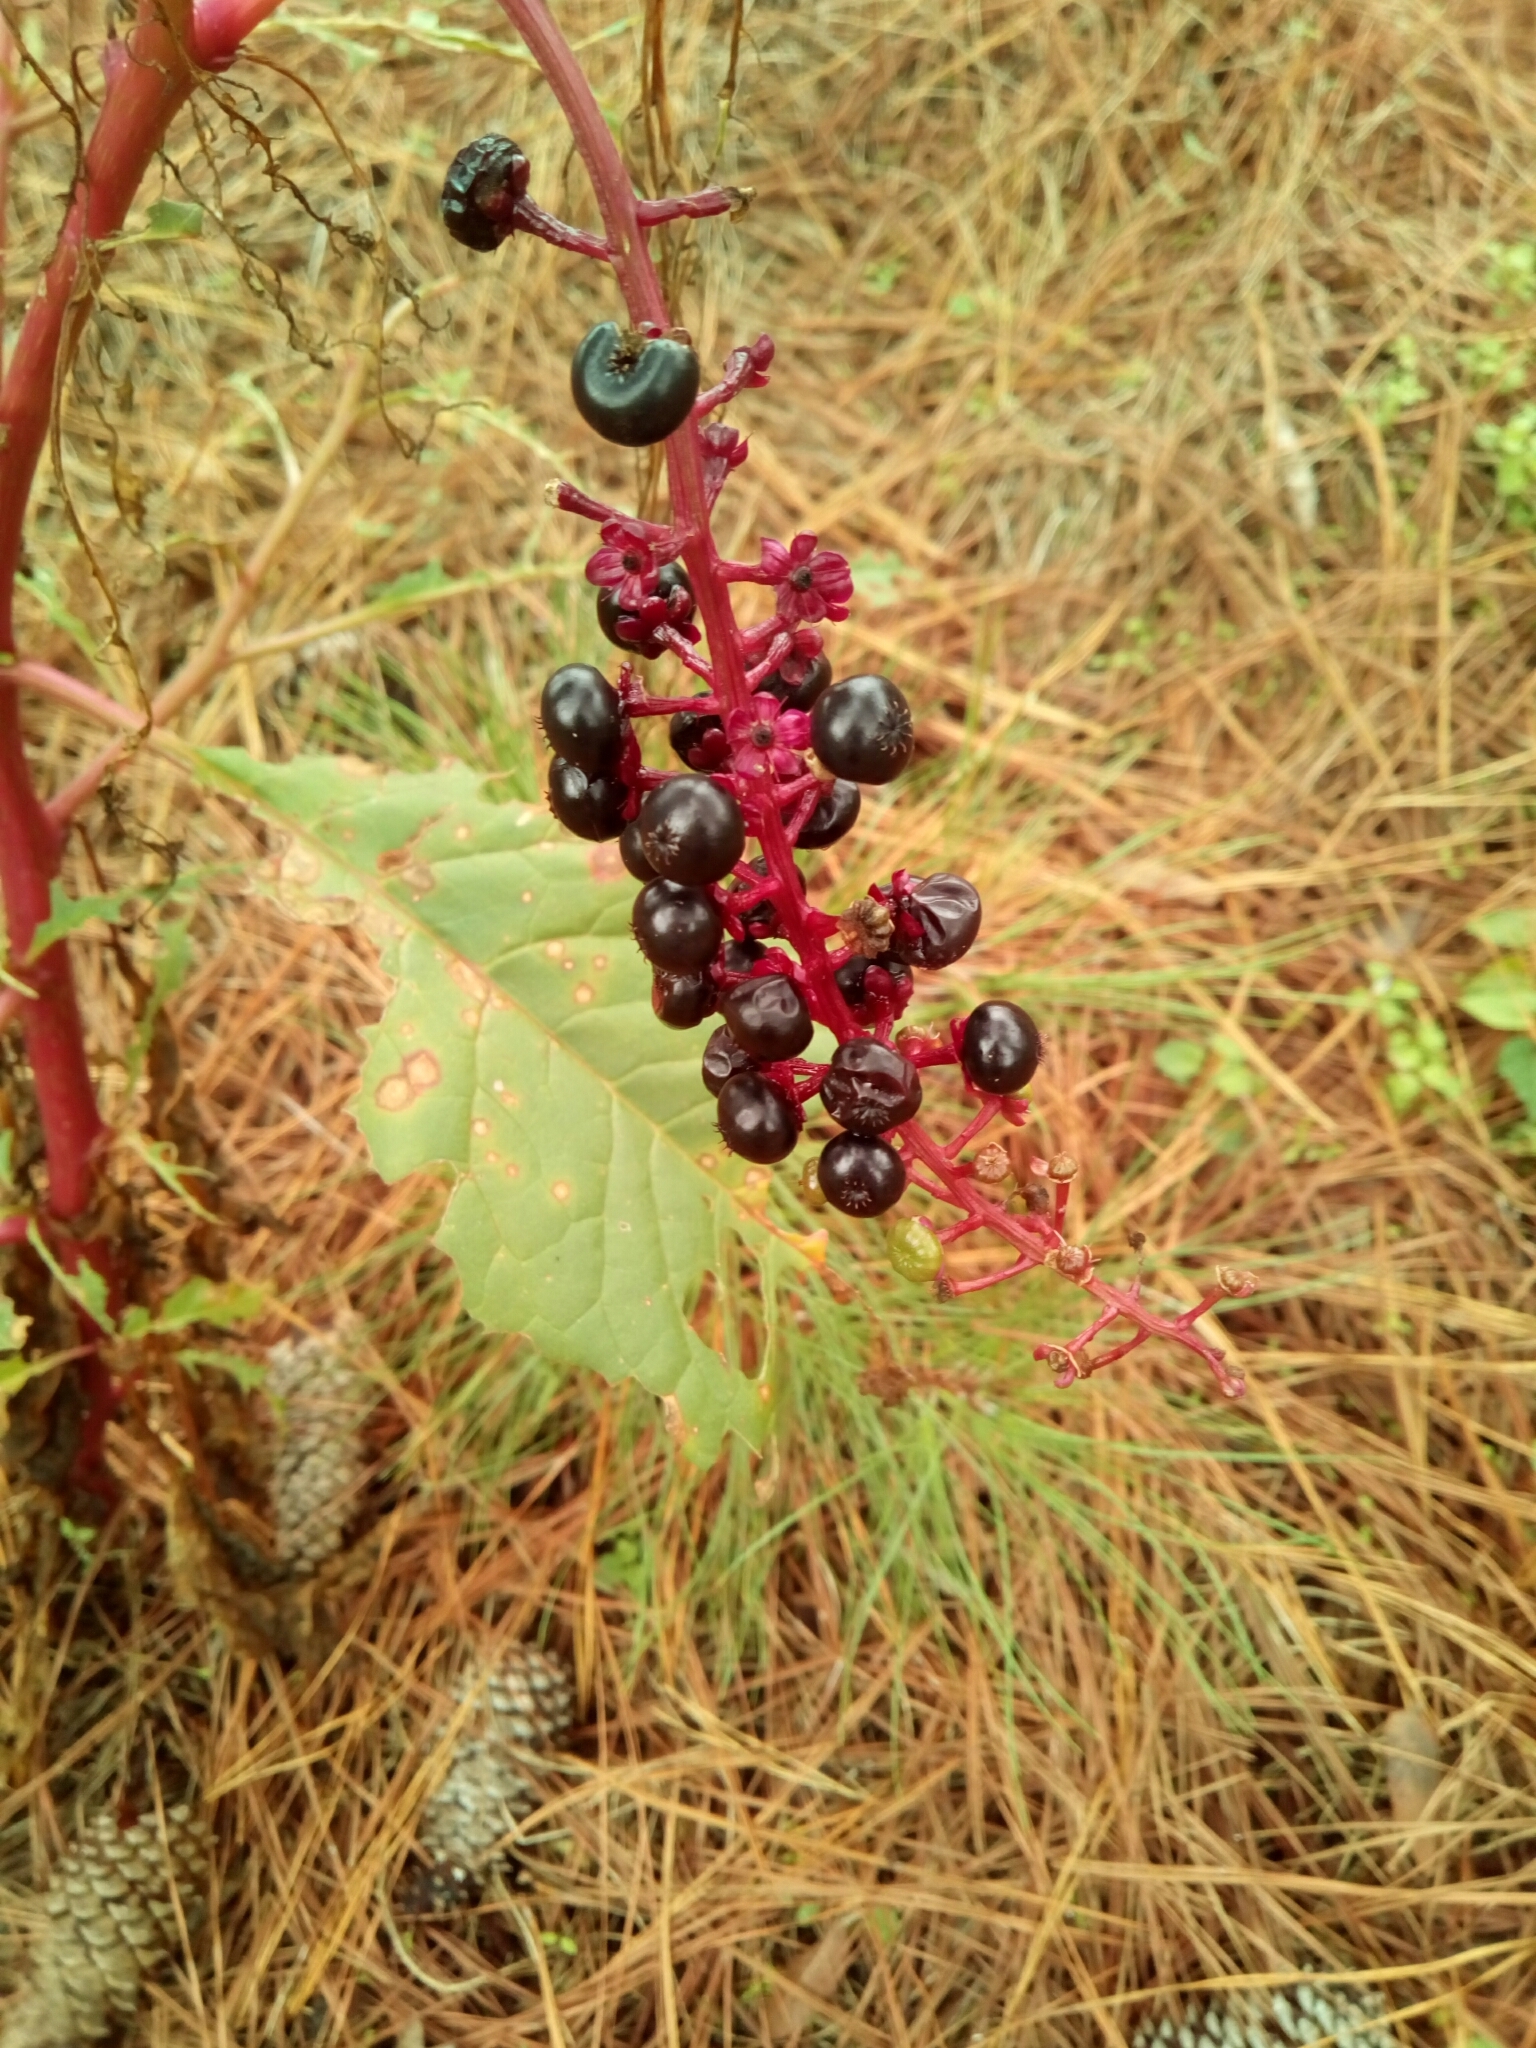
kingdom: Plantae
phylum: Tracheophyta
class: Magnoliopsida
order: Caryophyllales
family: Phytolaccaceae
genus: Phytolacca
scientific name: Phytolacca americana
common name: American pokeweed
